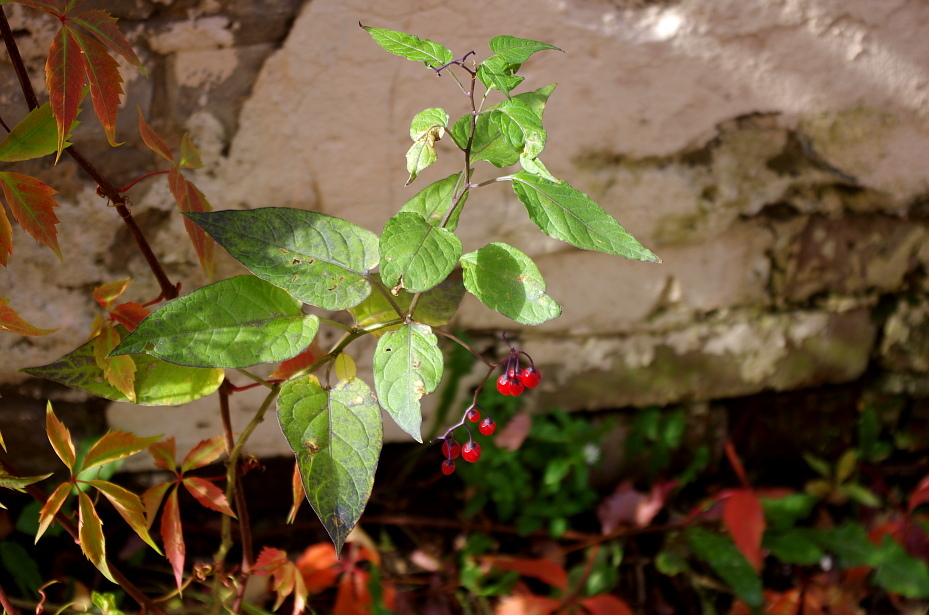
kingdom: Plantae
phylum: Tracheophyta
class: Magnoliopsida
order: Solanales
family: Solanaceae
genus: Solanum
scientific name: Solanum dulcamara
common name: Climbing nightshade
